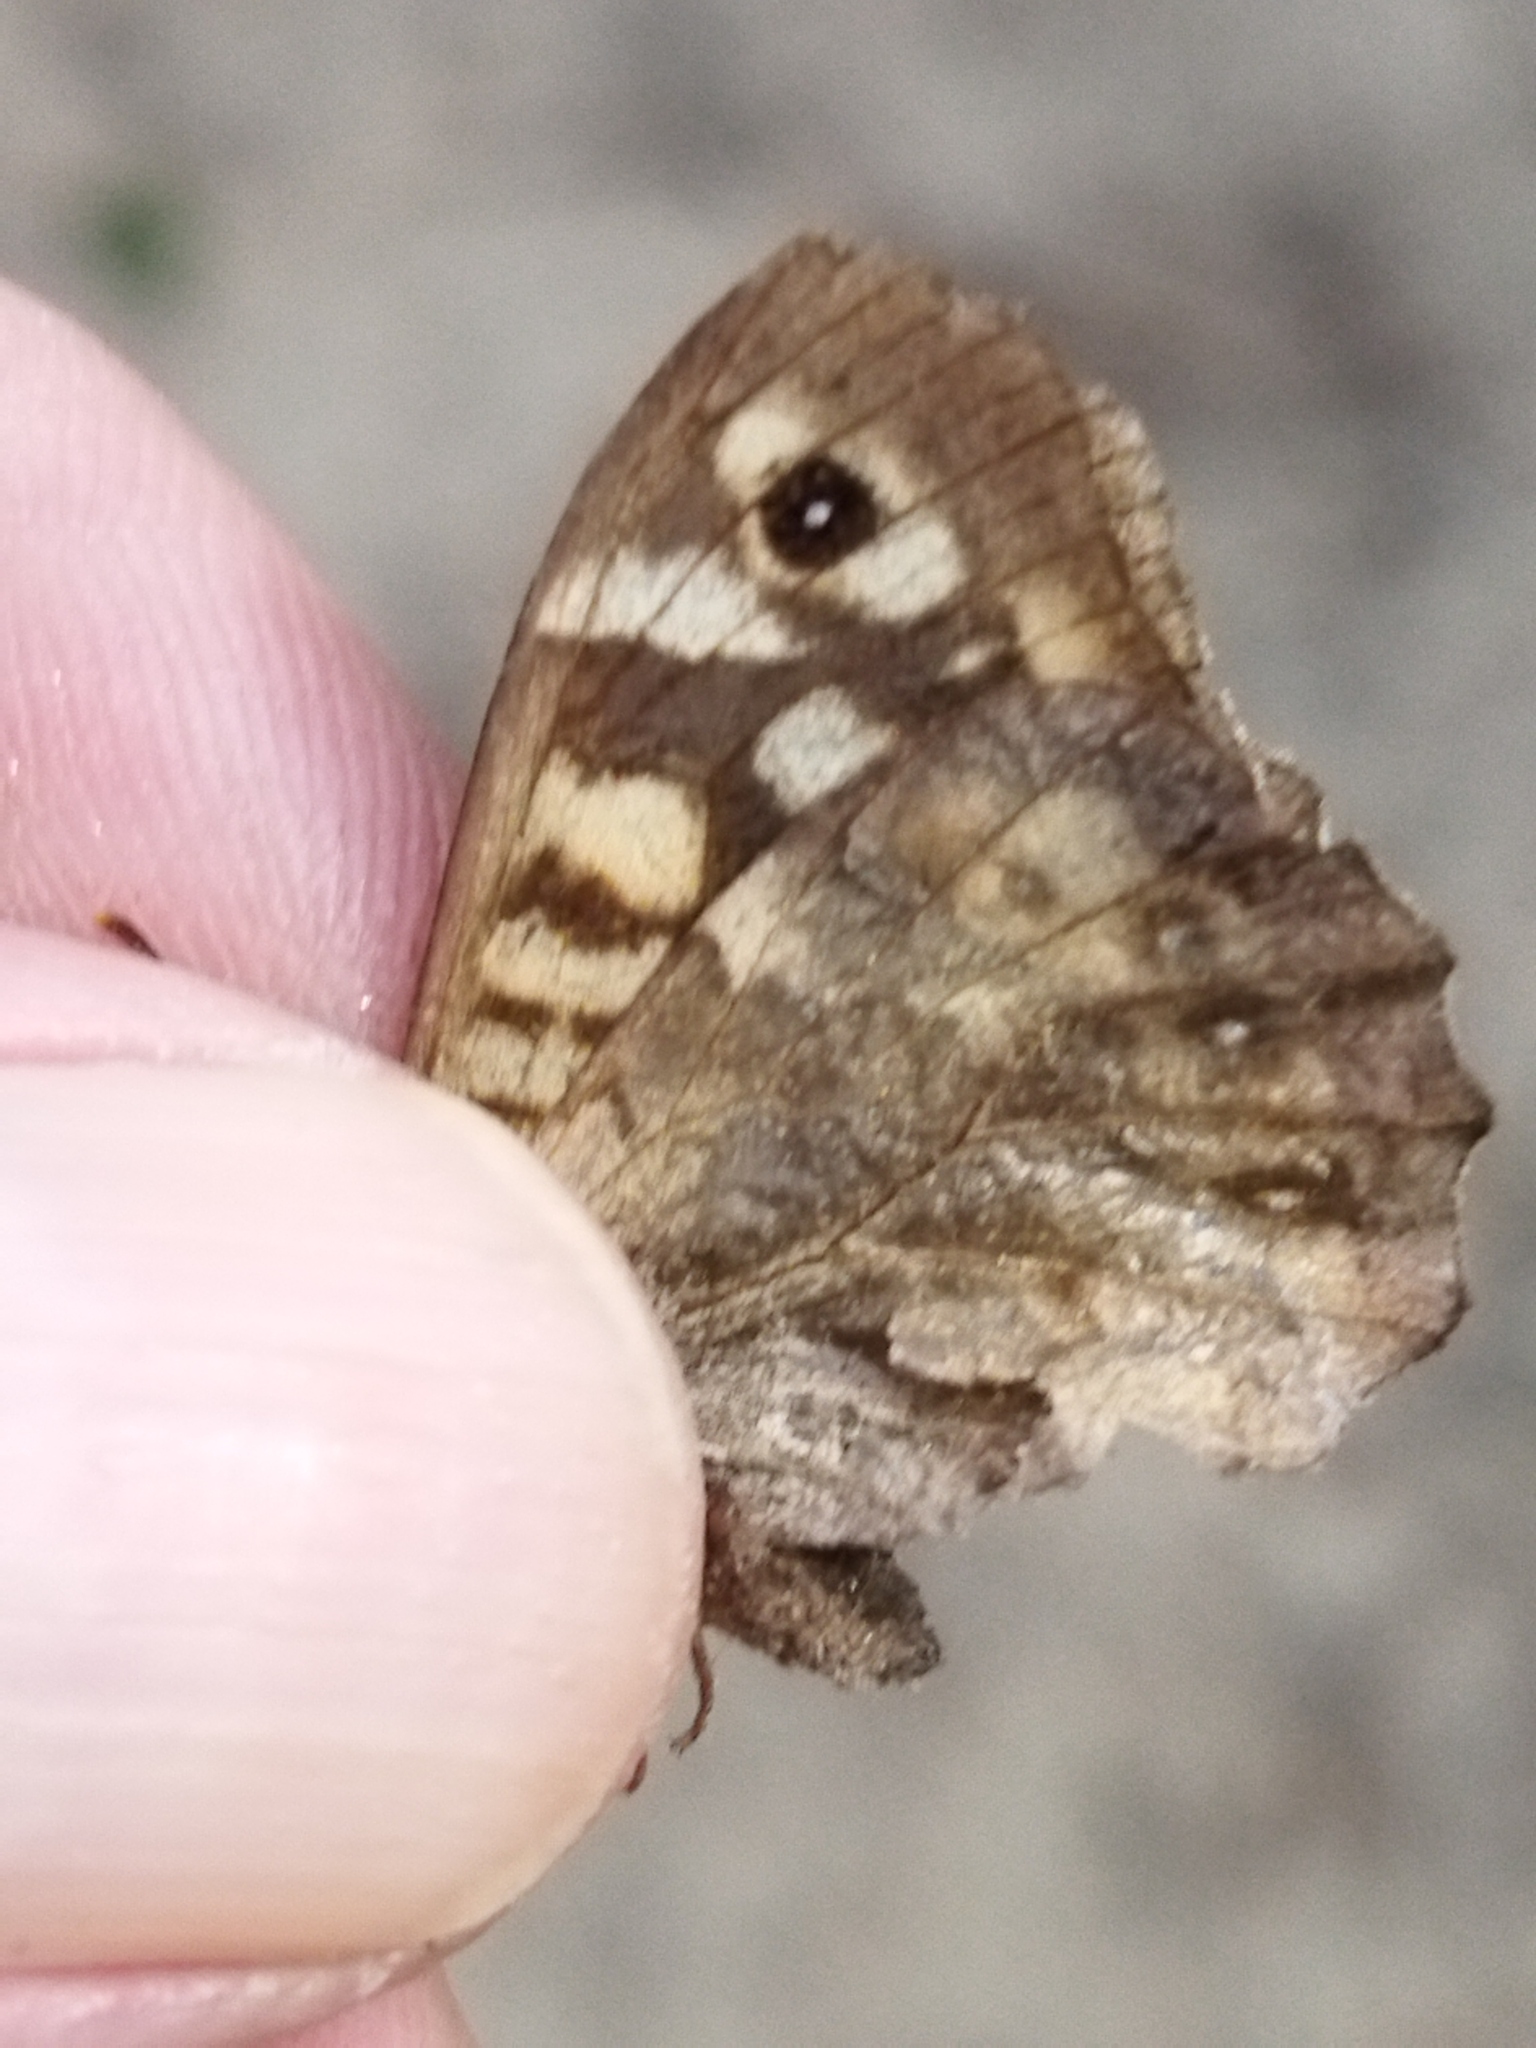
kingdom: Animalia
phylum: Arthropoda
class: Insecta
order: Lepidoptera
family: Nymphalidae
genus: Pararge
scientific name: Pararge aegeria
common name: Speckled wood
